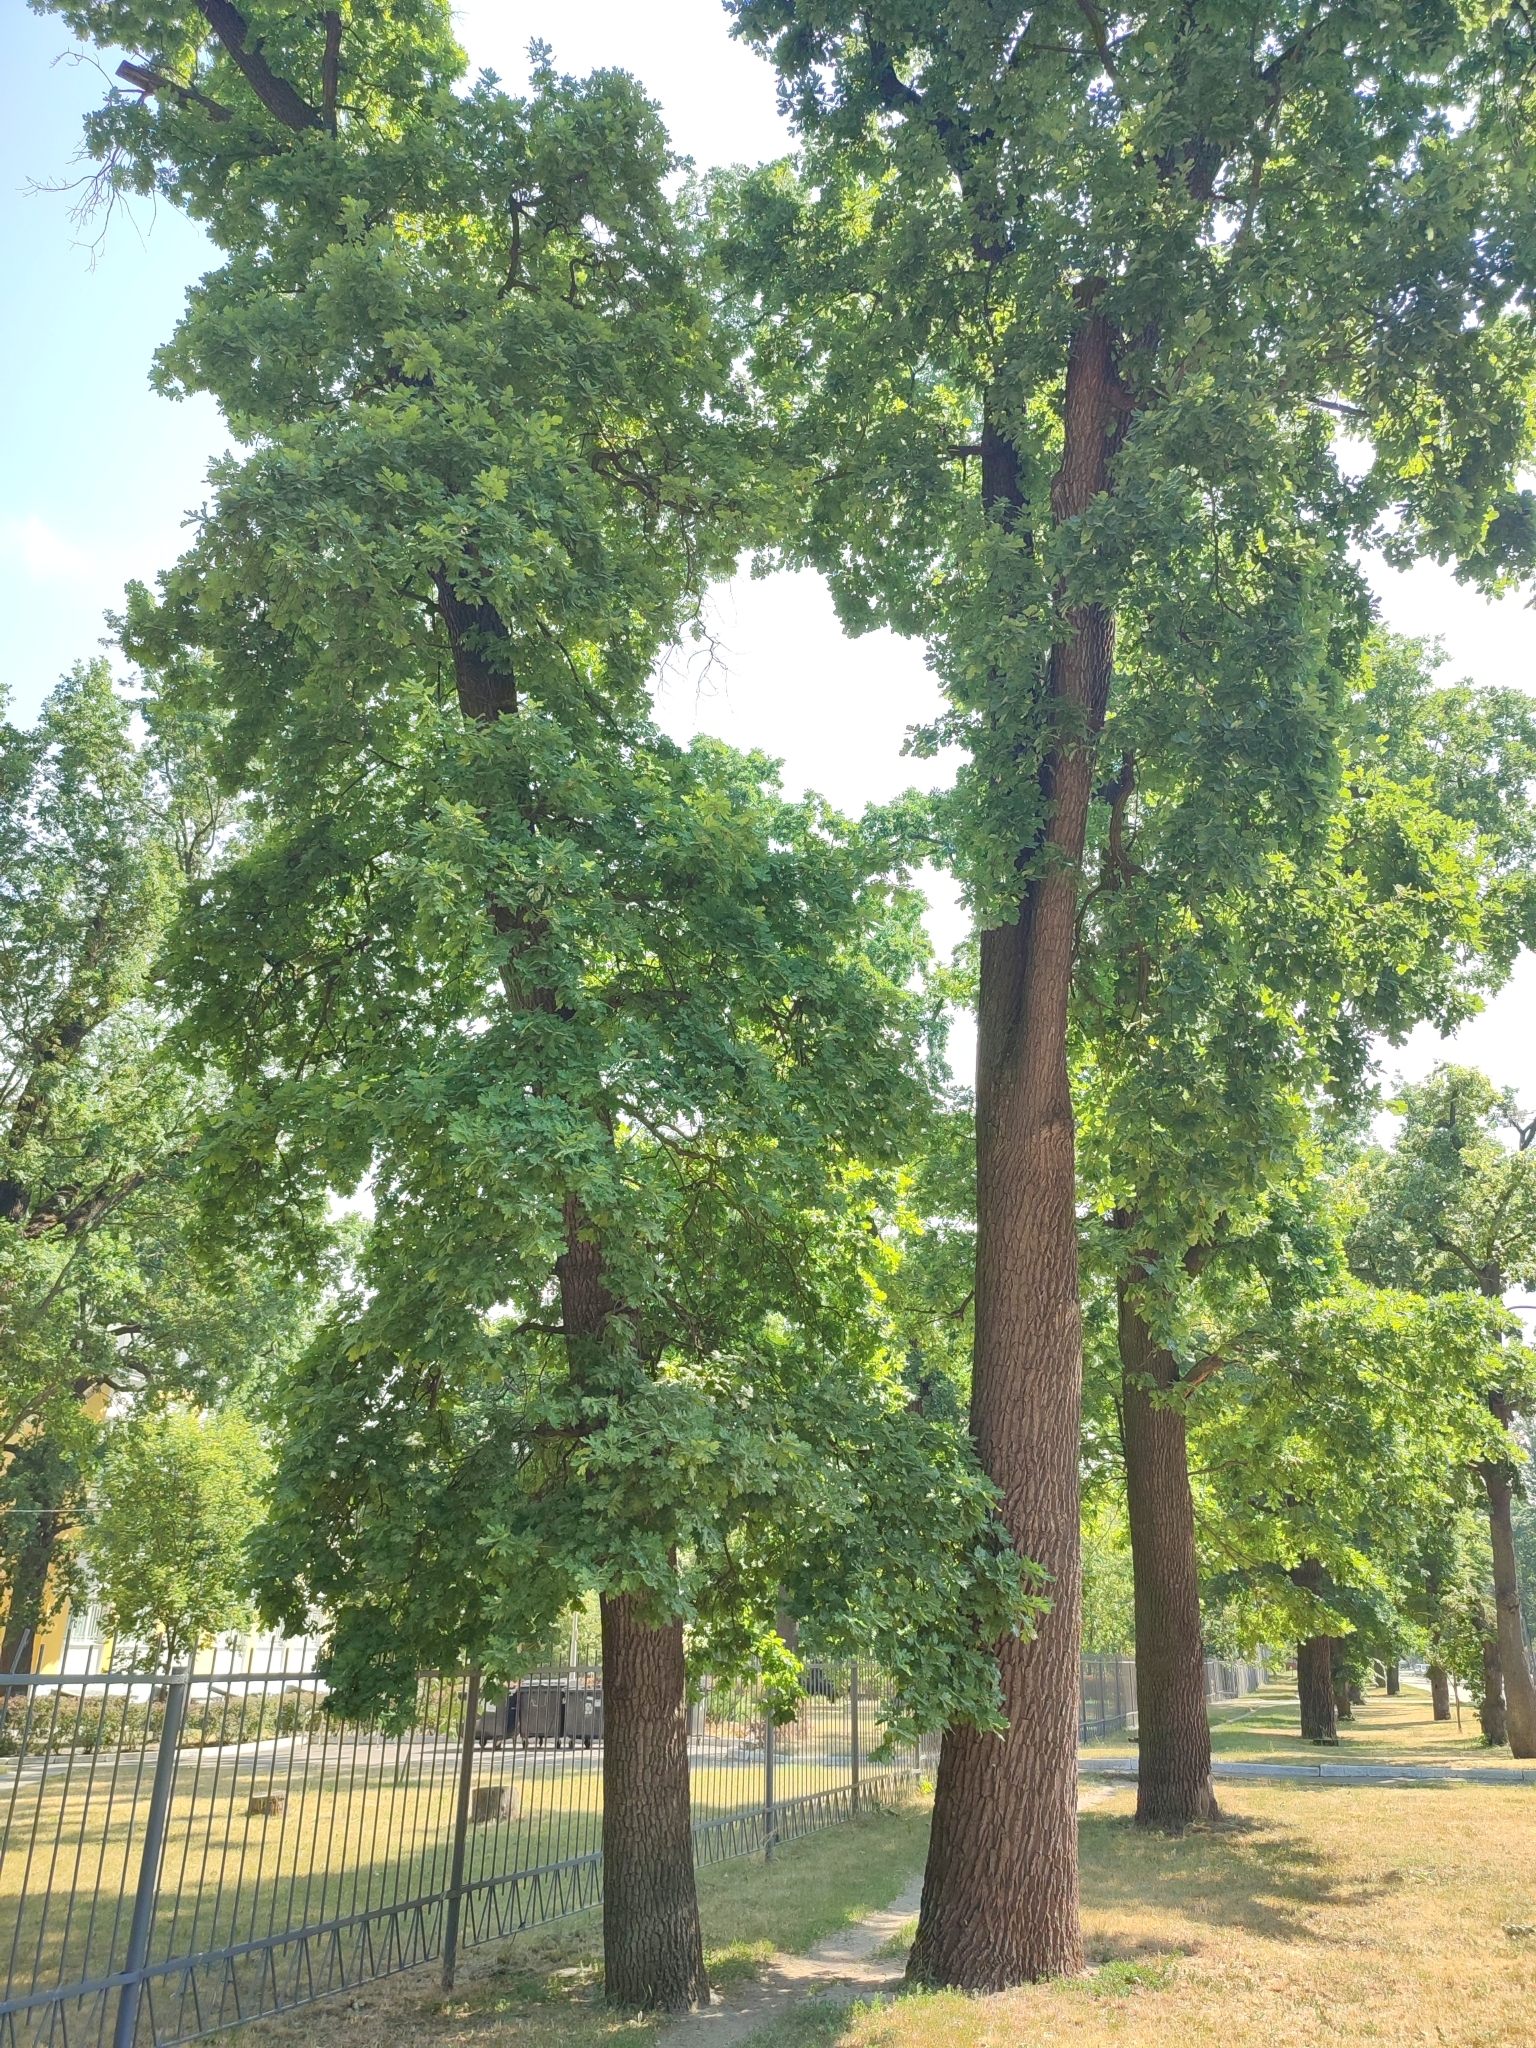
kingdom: Plantae
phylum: Tracheophyta
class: Magnoliopsida
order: Fagales
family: Fagaceae
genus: Quercus
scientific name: Quercus robur
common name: Pedunculate oak
